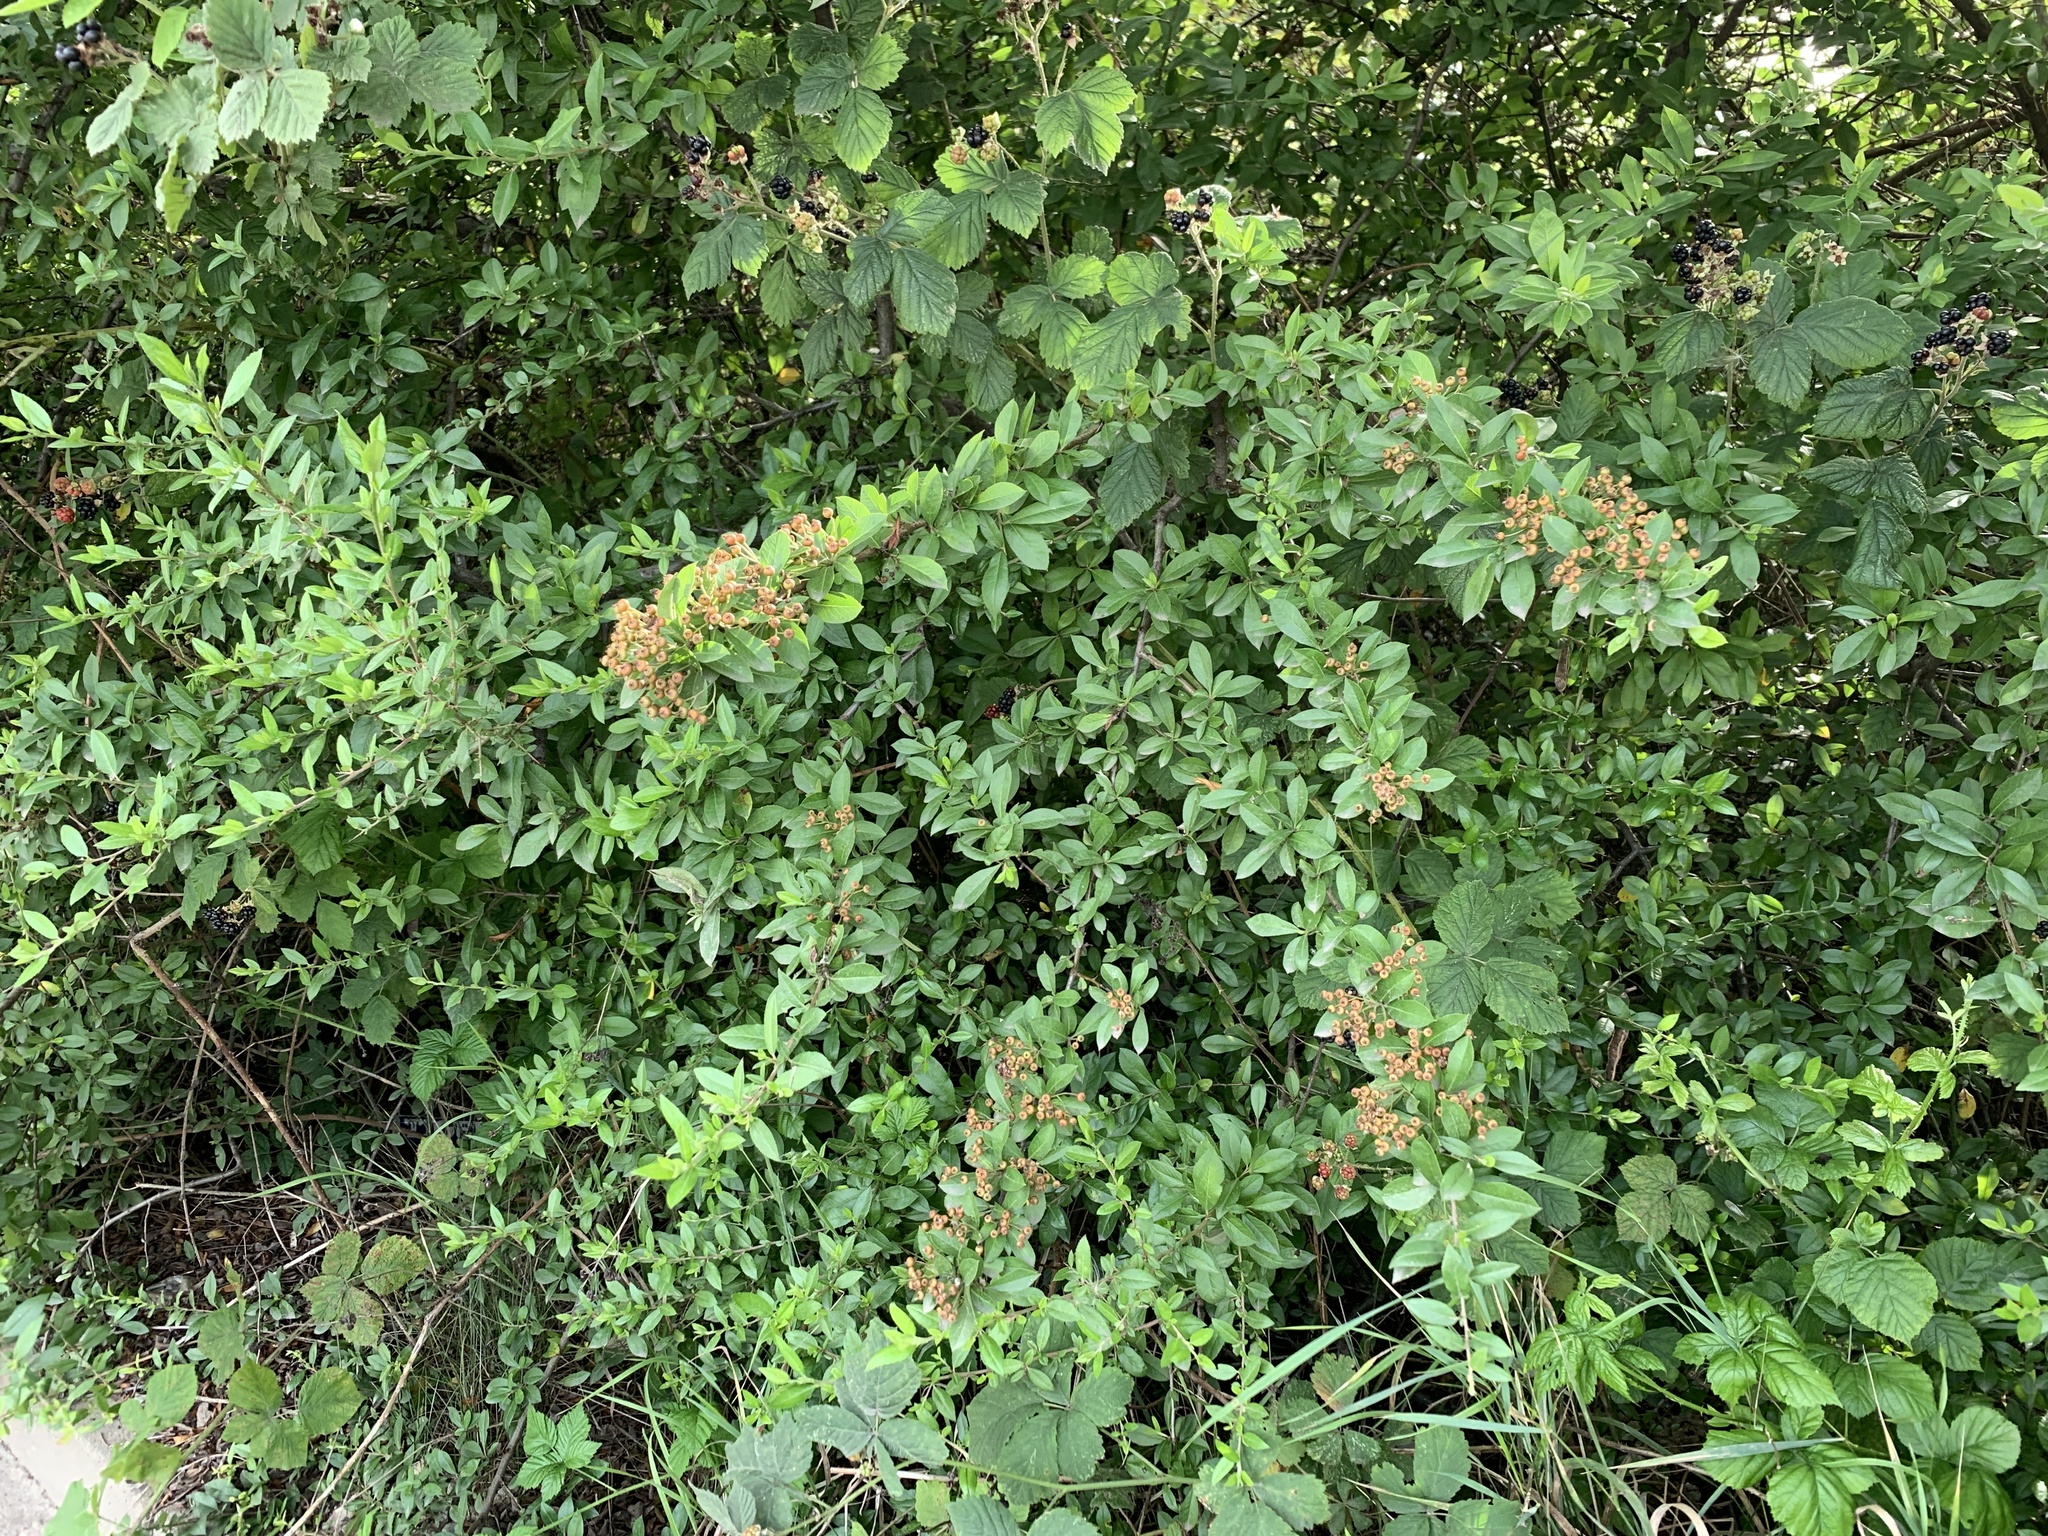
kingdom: Plantae
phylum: Tracheophyta
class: Magnoliopsida
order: Rosales
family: Rosaceae
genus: Pyracantha
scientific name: Pyracantha coccinea
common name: Firethorn
